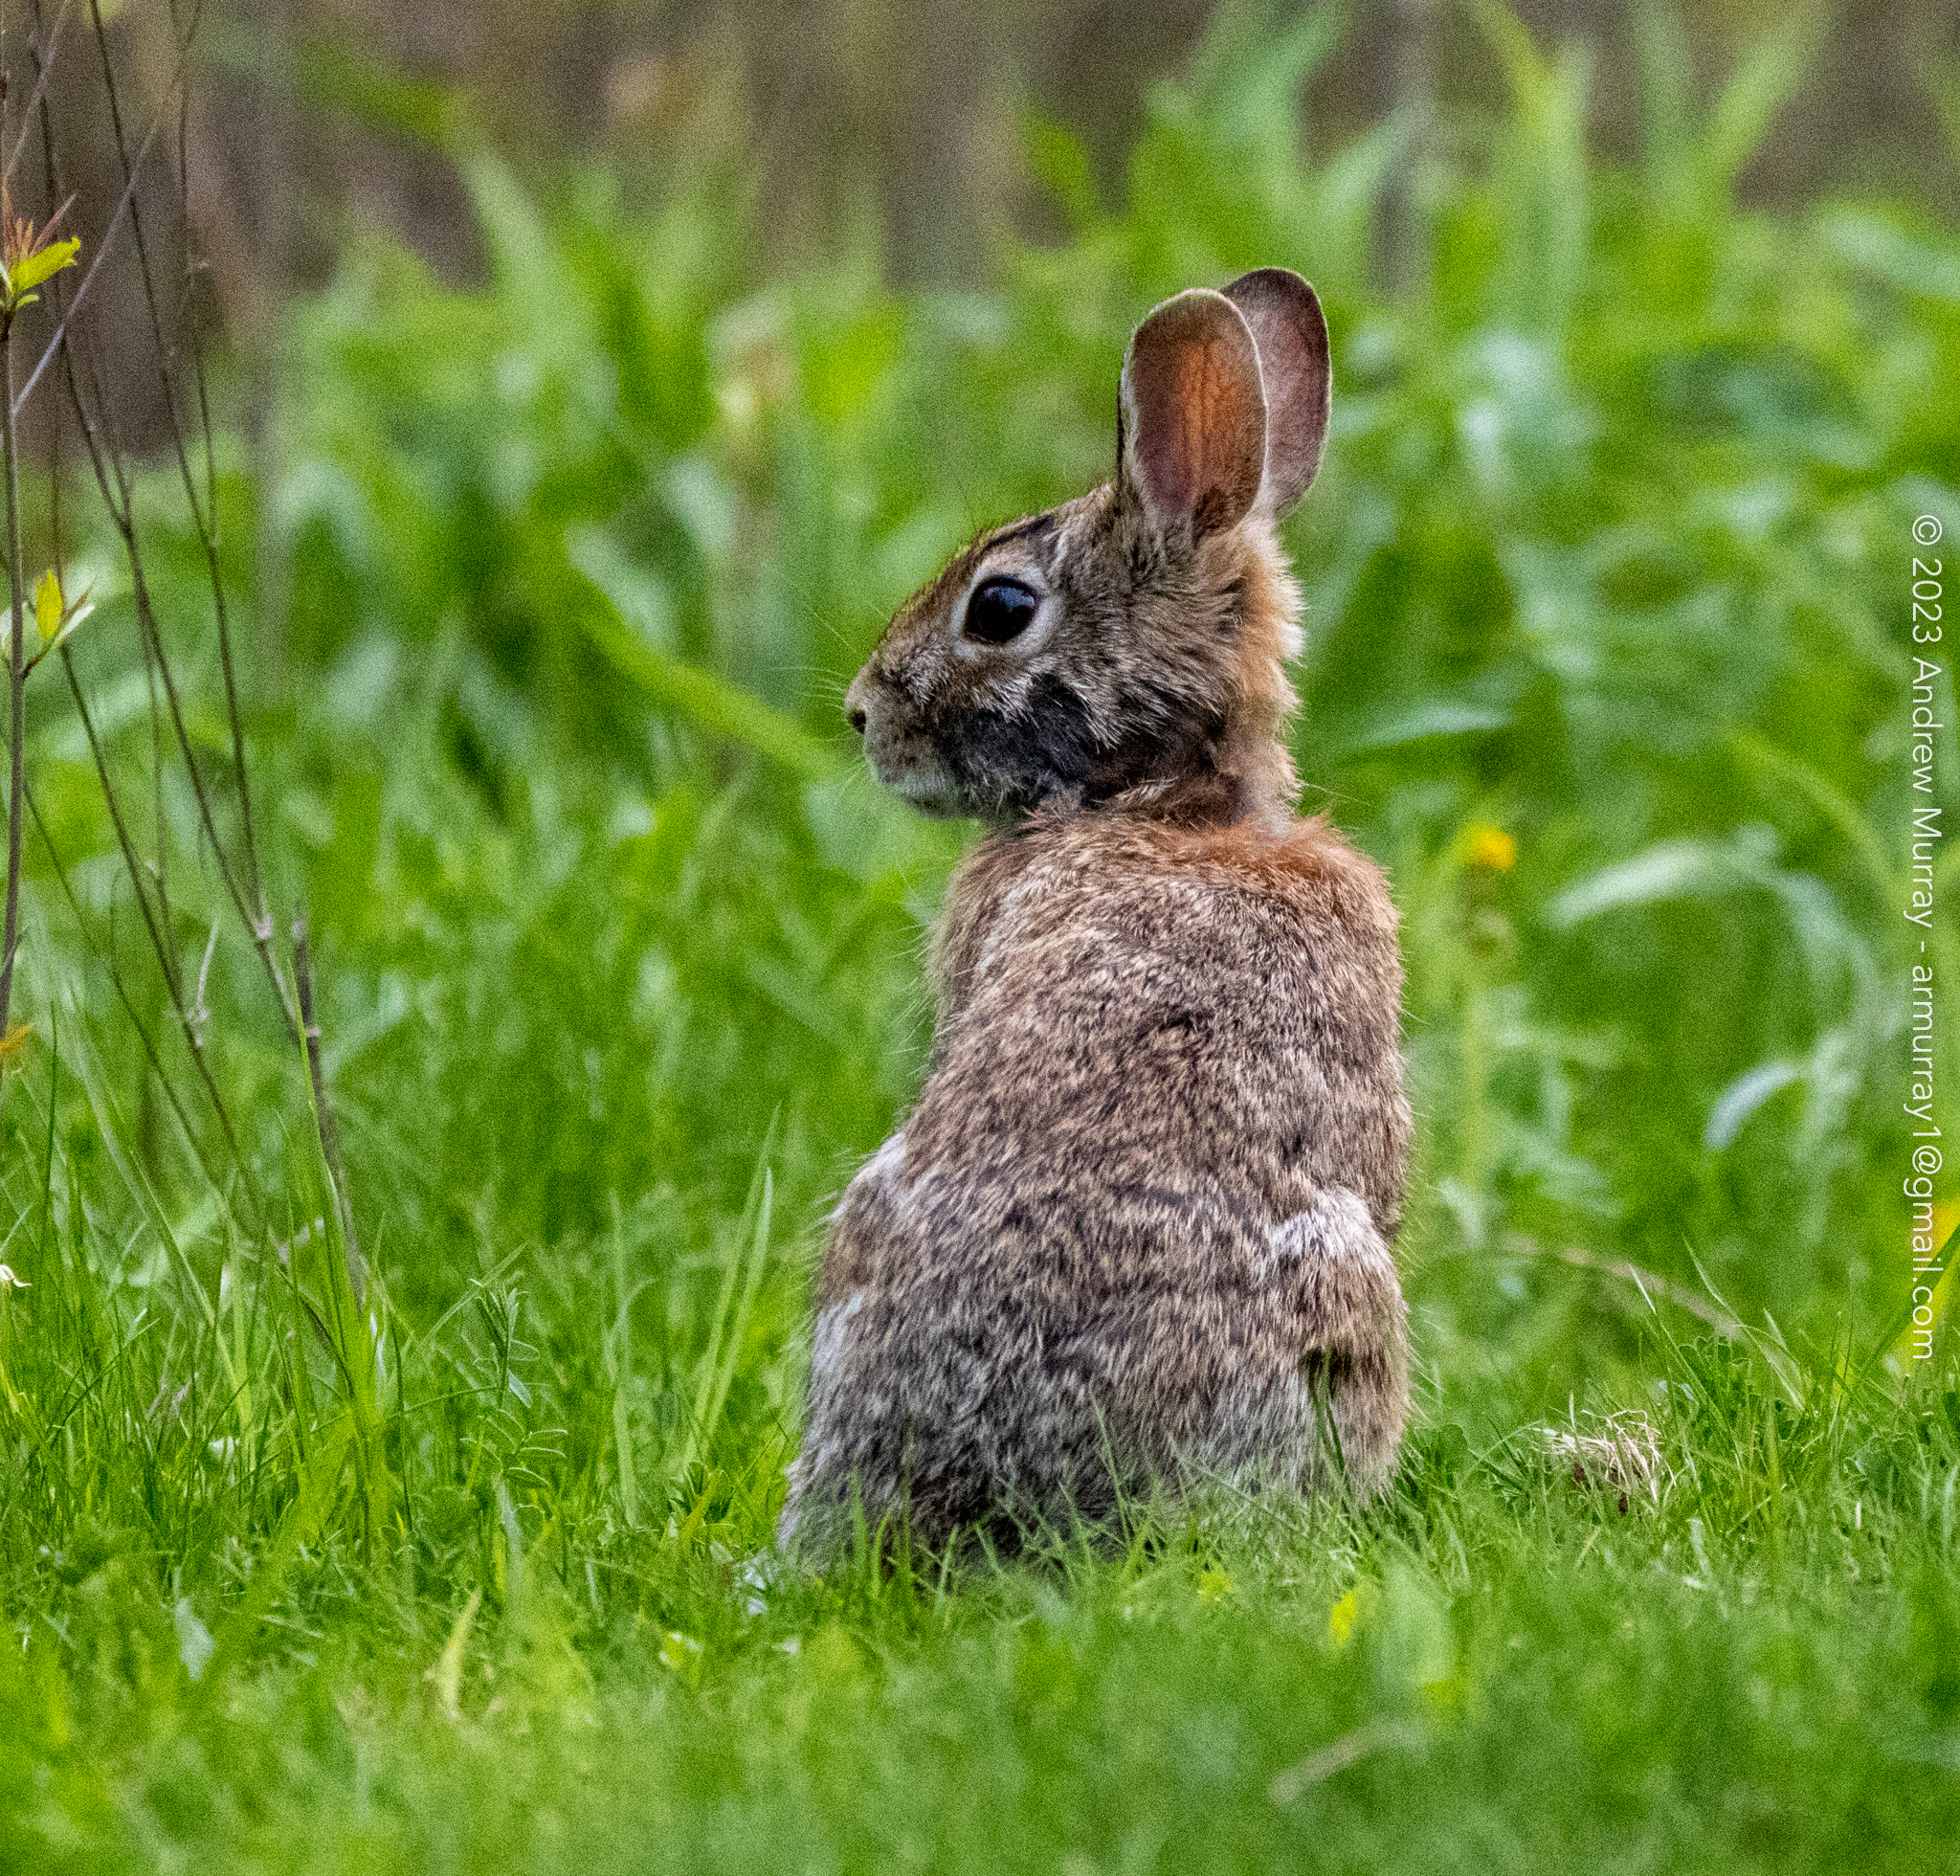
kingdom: Animalia
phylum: Chordata
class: Mammalia
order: Lagomorpha
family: Leporidae
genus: Sylvilagus
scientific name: Sylvilagus floridanus
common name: Eastern cottontail
